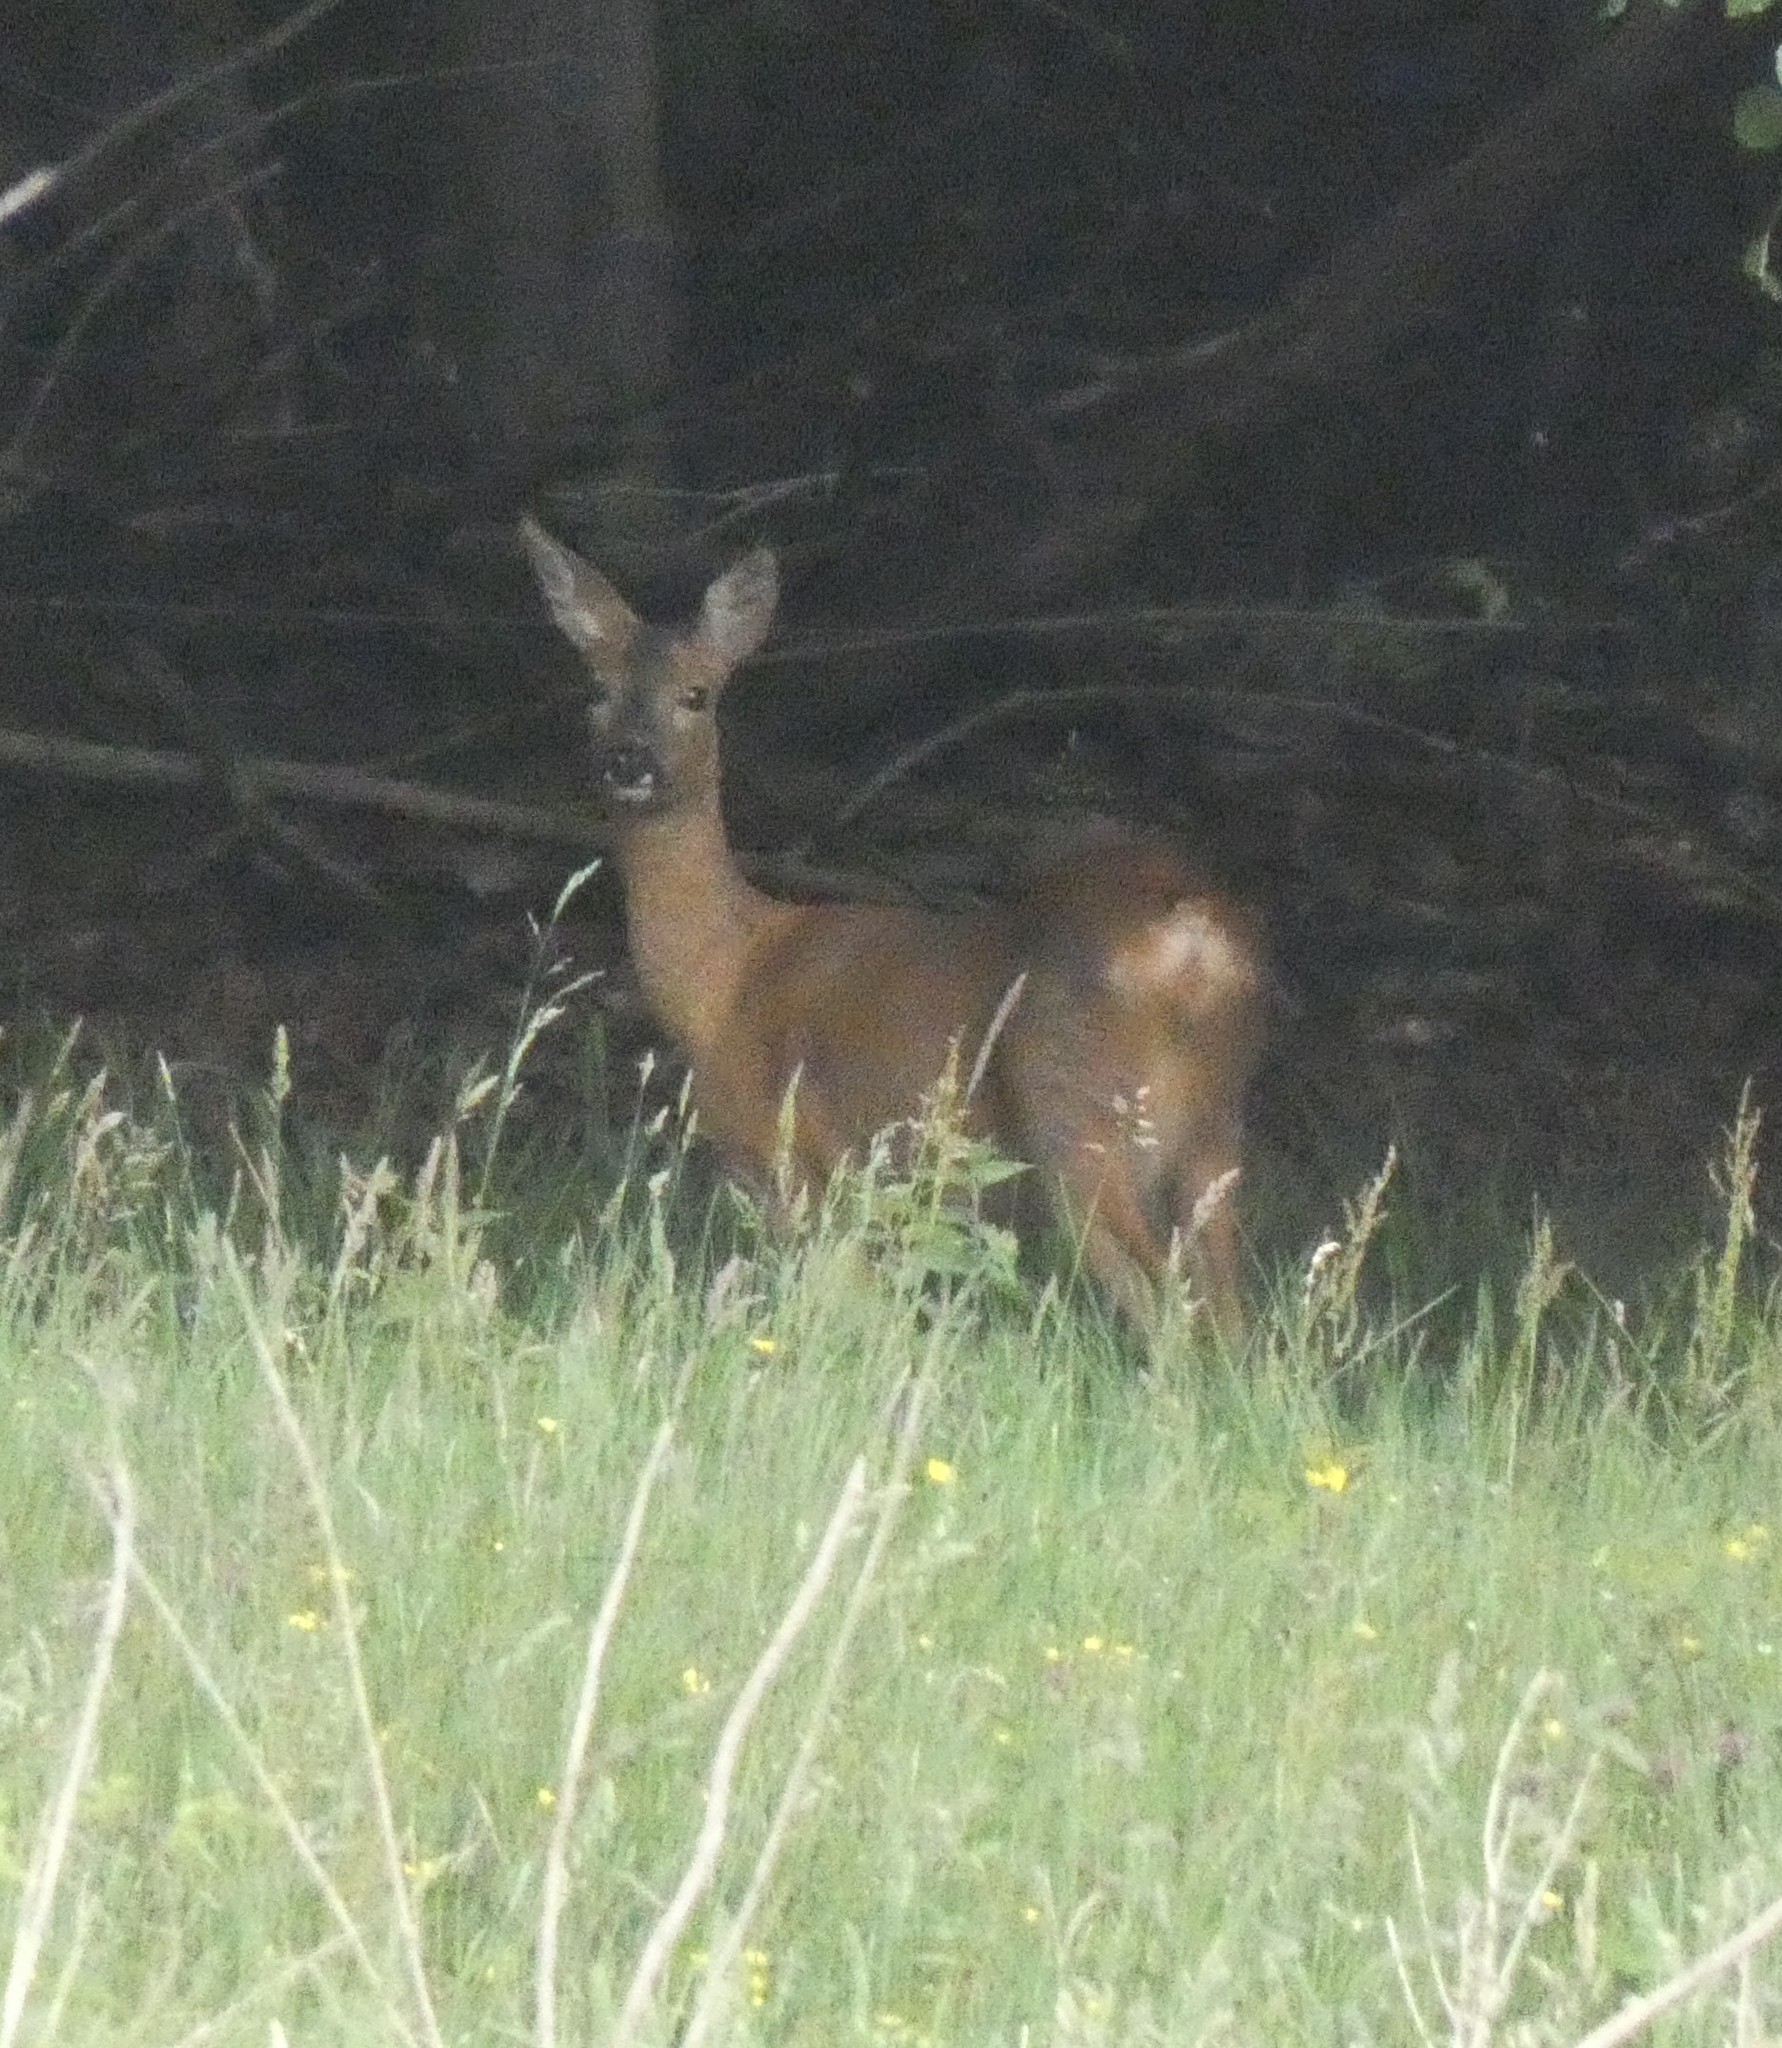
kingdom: Animalia
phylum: Chordata
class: Mammalia
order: Artiodactyla
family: Cervidae
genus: Capreolus
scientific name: Capreolus capreolus
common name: Western roe deer
